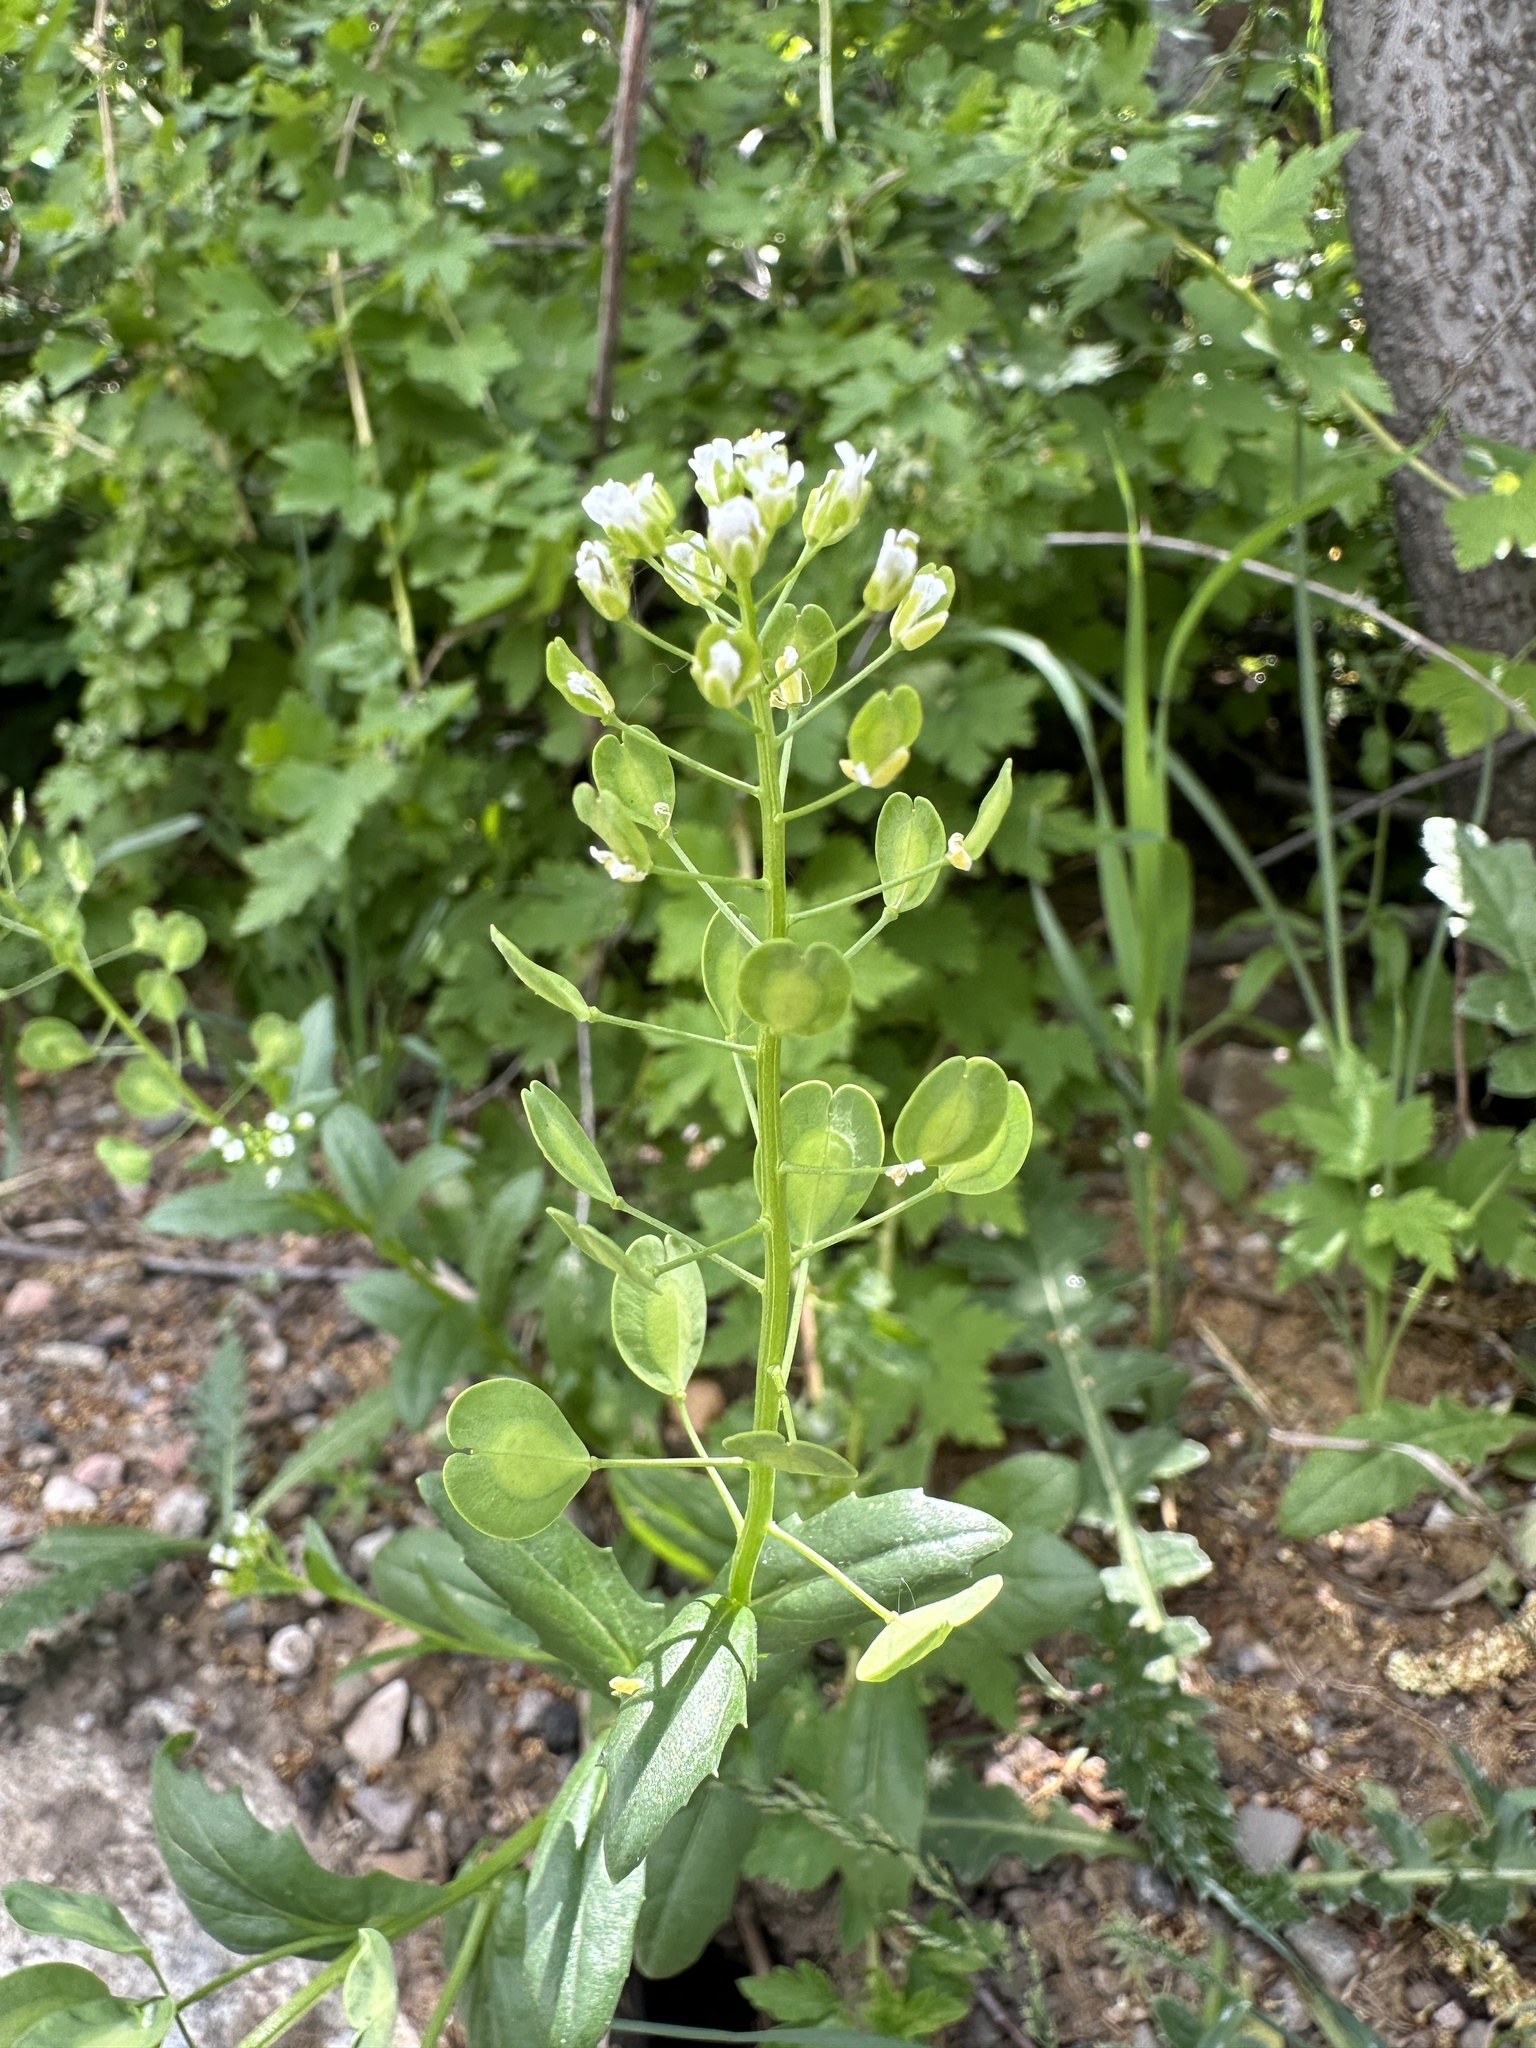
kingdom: Plantae
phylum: Tracheophyta
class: Magnoliopsida
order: Brassicales
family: Brassicaceae
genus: Thlaspi
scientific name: Thlaspi arvense
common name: Field pennycress
